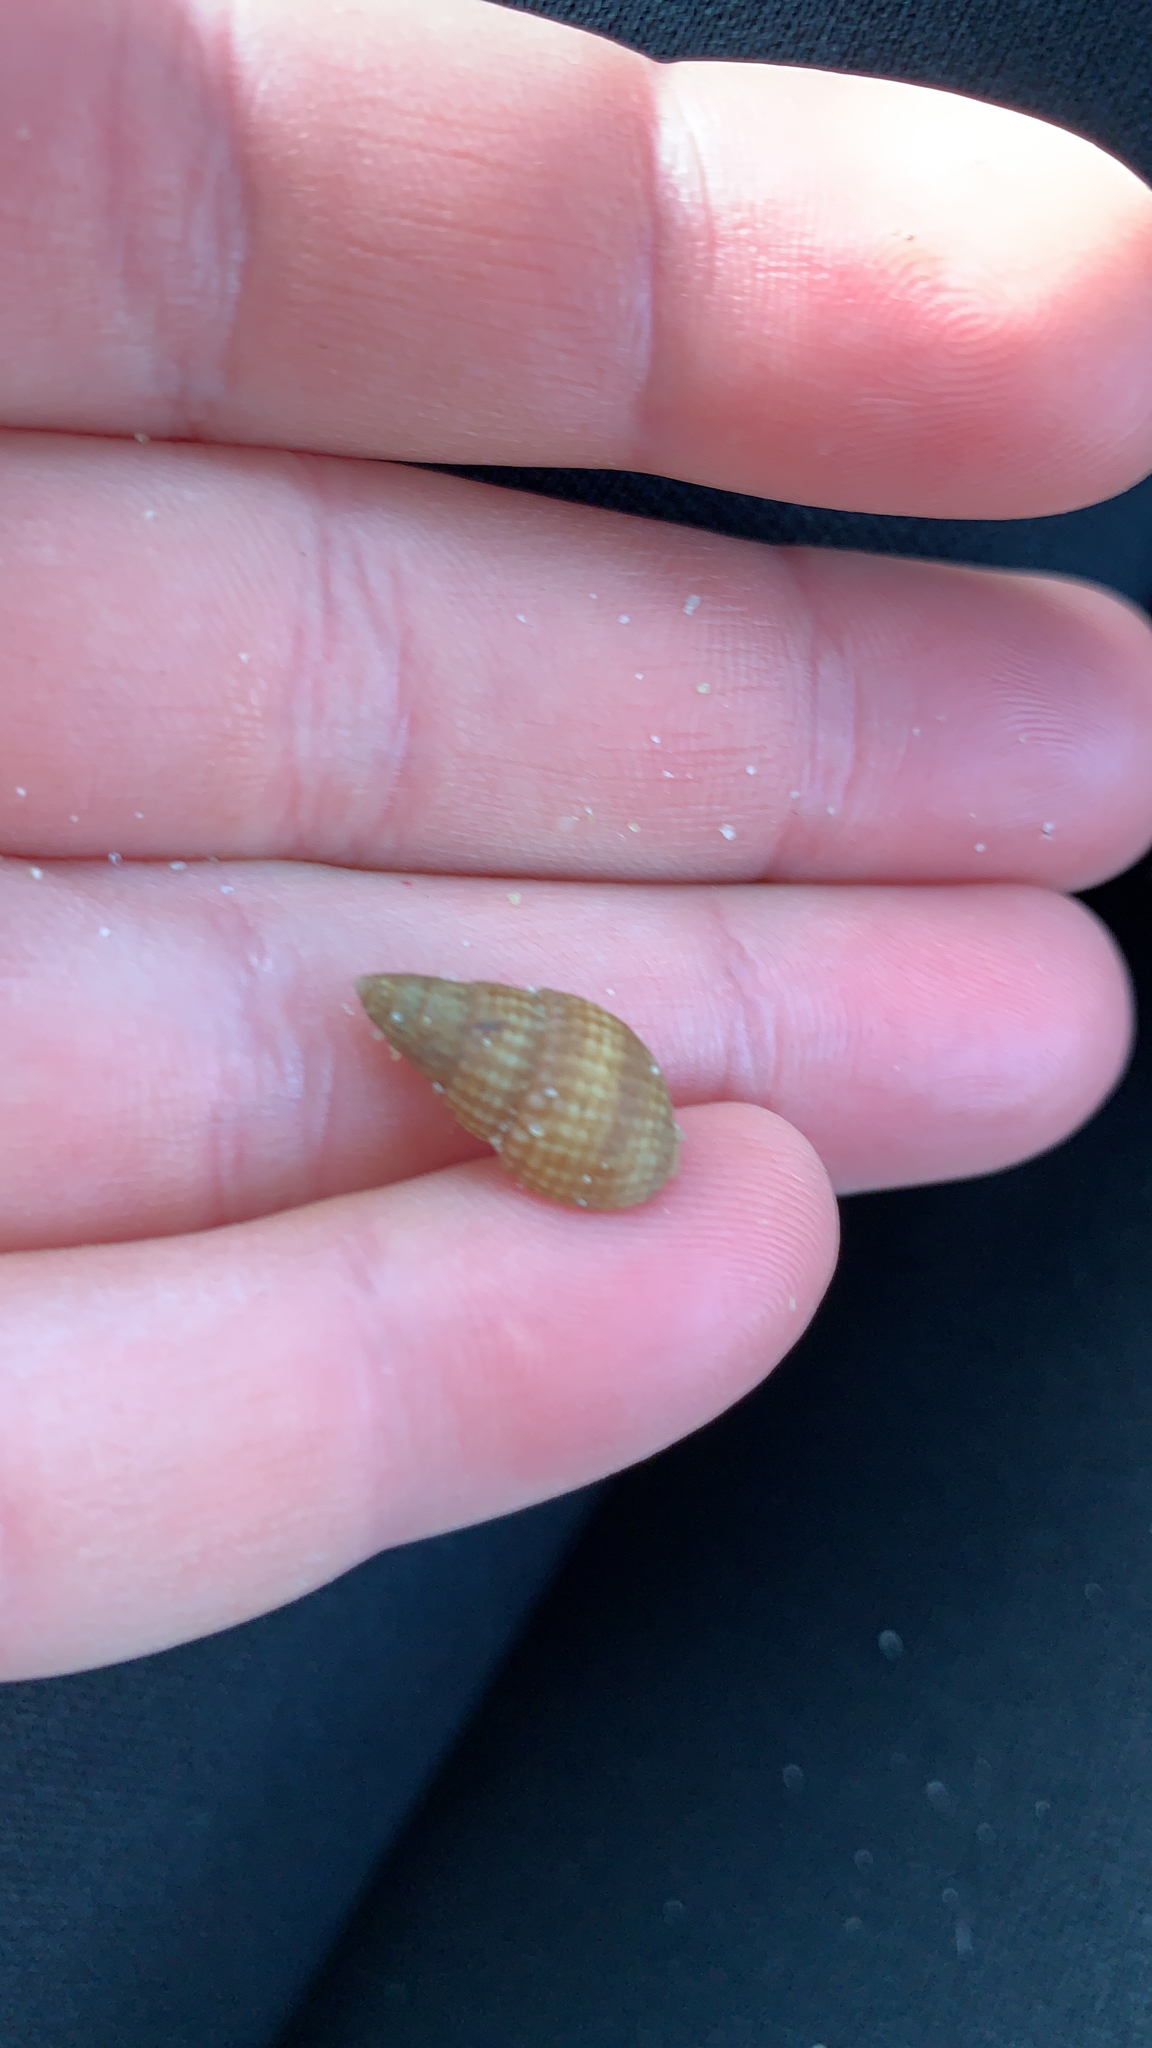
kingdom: Animalia
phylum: Mollusca
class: Gastropoda
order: Neogastropoda
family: Nassariidae
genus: Ilyanassa
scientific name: Ilyanassa trivittata
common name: Three-line mudsnail
